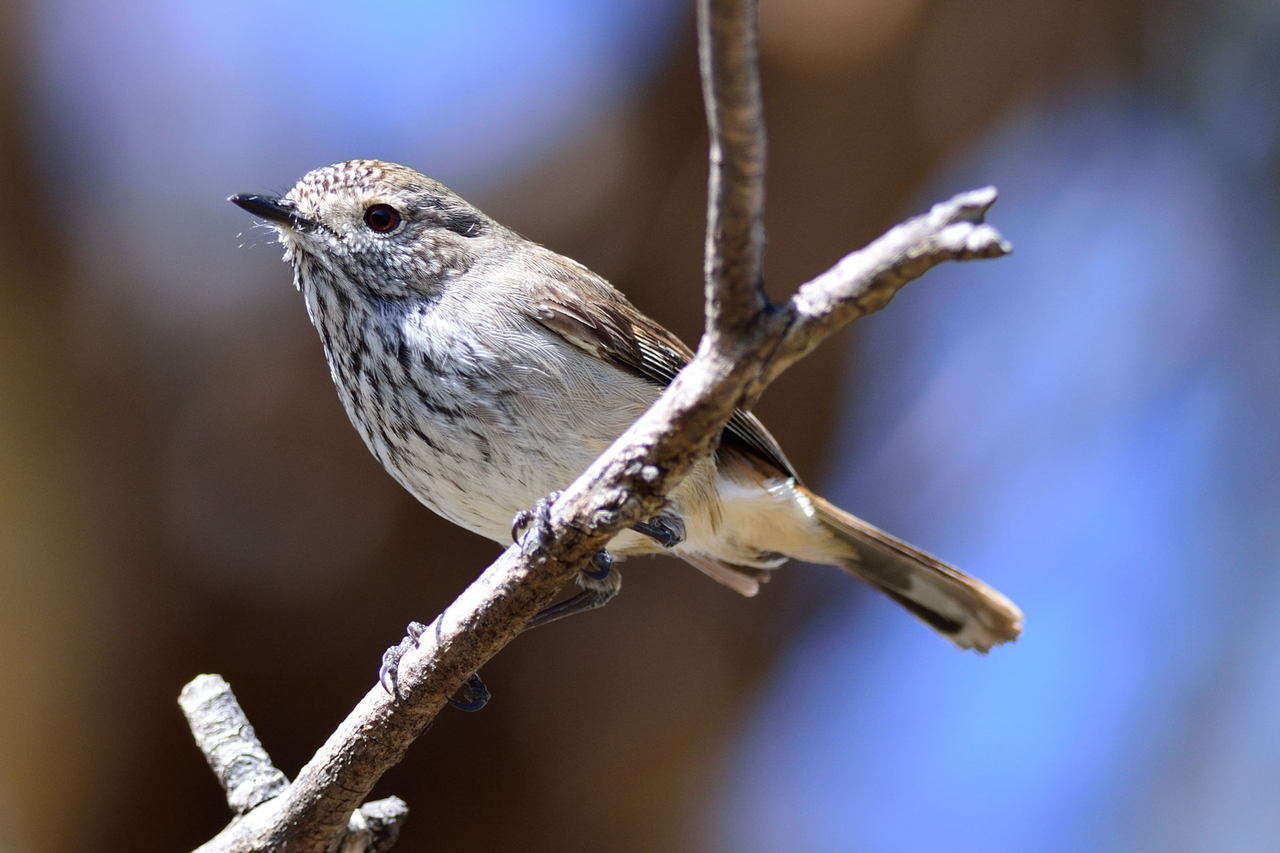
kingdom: Animalia
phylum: Chordata
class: Aves
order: Passeriformes
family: Acanthizidae
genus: Acanthiza
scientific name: Acanthiza apicalis
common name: Inland thornbill
